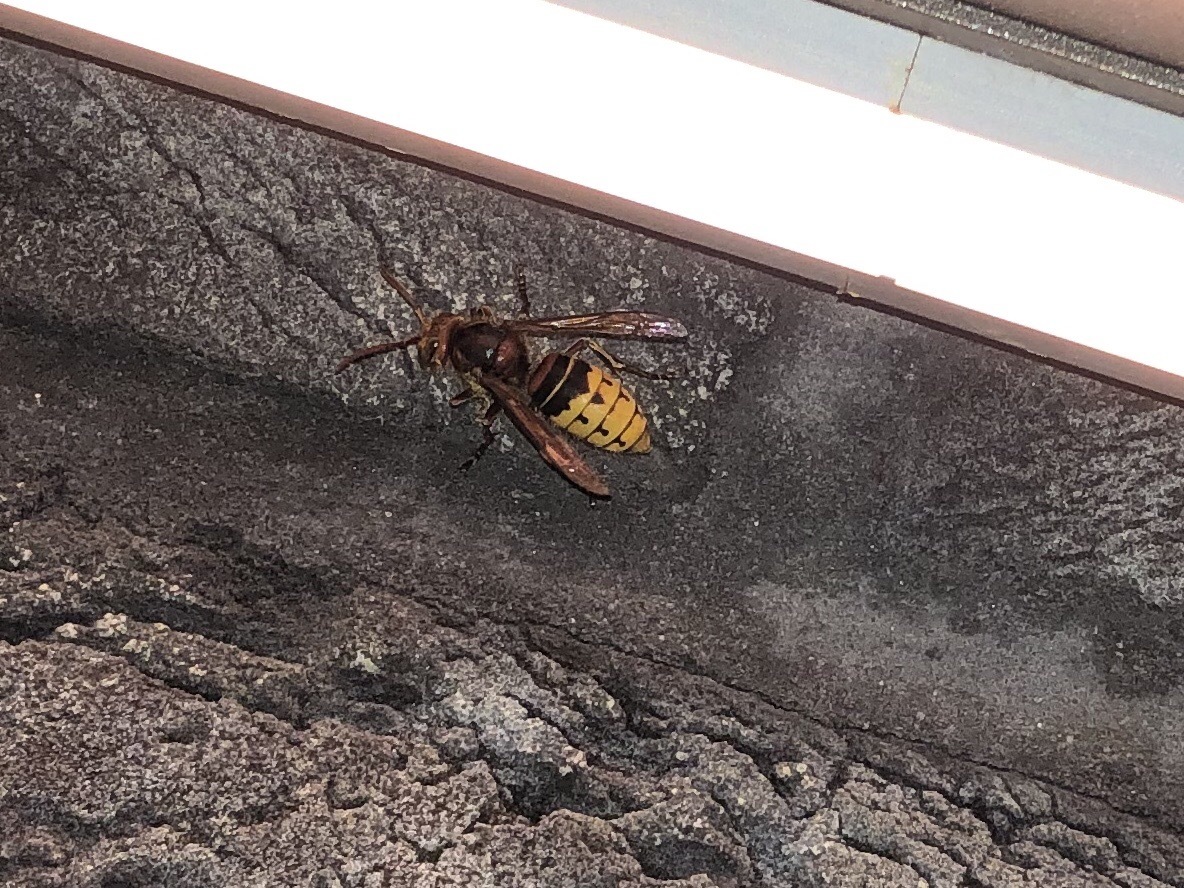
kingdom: Animalia
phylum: Arthropoda
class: Insecta
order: Hymenoptera
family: Vespidae
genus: Vespa
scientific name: Vespa crabro
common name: Hornet
